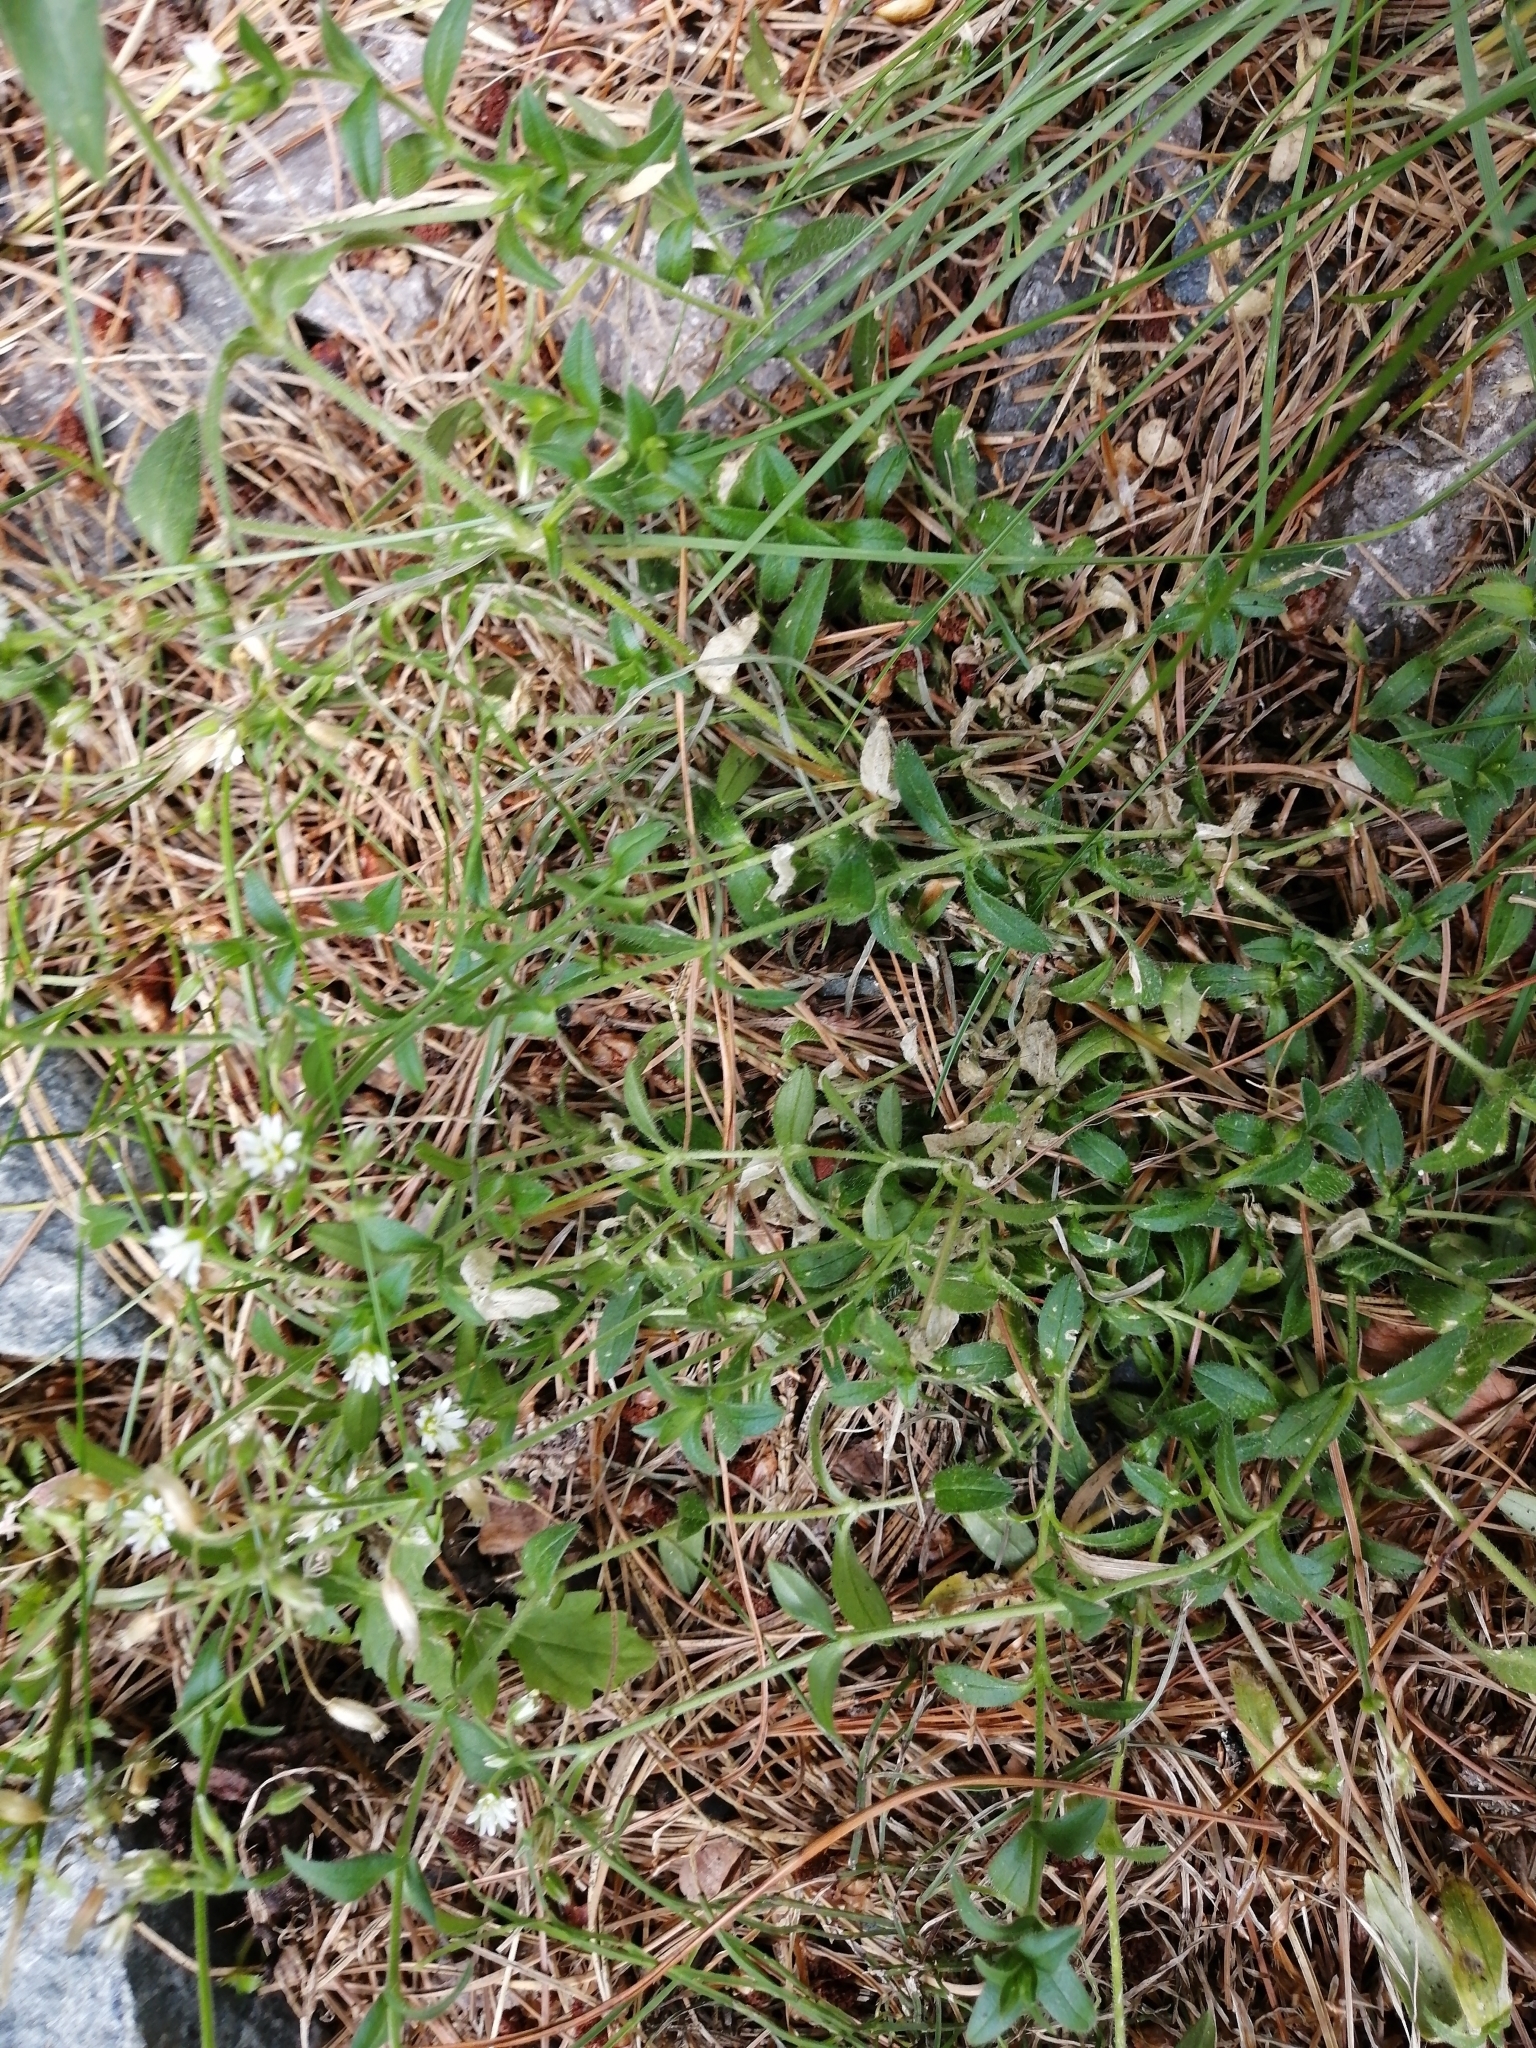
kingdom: Plantae
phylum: Tracheophyta
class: Magnoliopsida
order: Caryophyllales
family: Caryophyllaceae
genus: Cerastium
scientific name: Cerastium holosteoides
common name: Big chickweed
